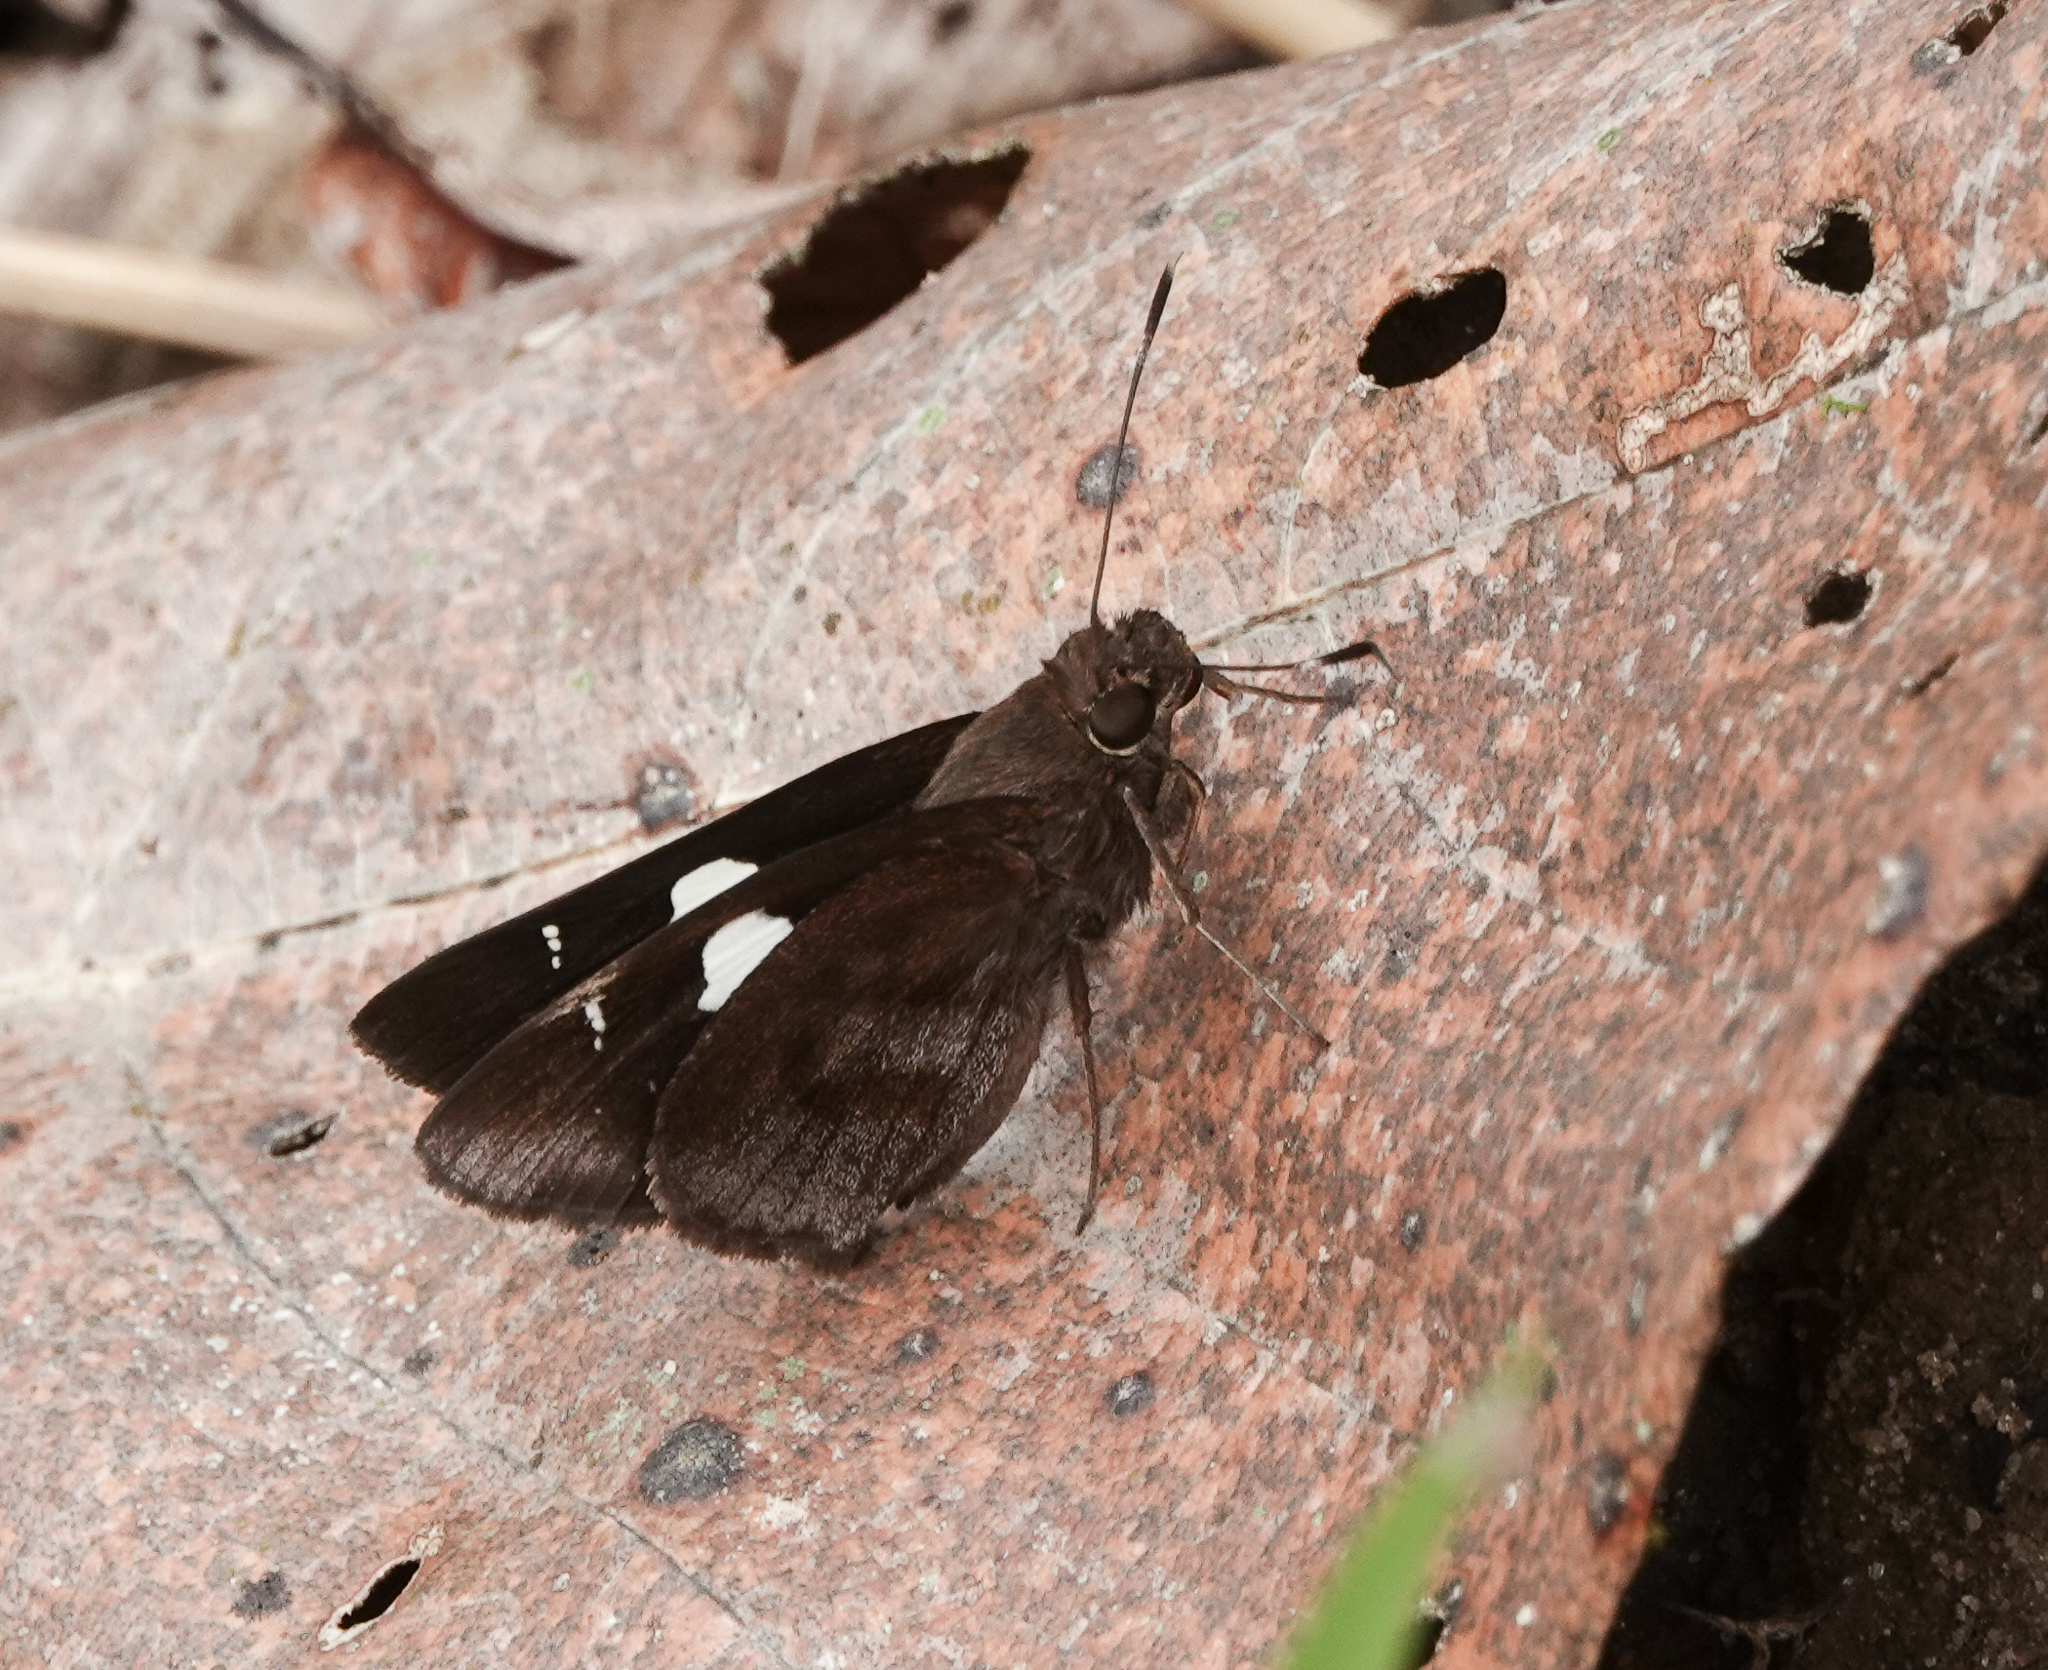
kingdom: Animalia
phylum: Arthropoda
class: Insecta
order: Lepidoptera
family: Hesperiidae
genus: Notocrypta
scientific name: Notocrypta curvifascia
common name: Restricted demon
